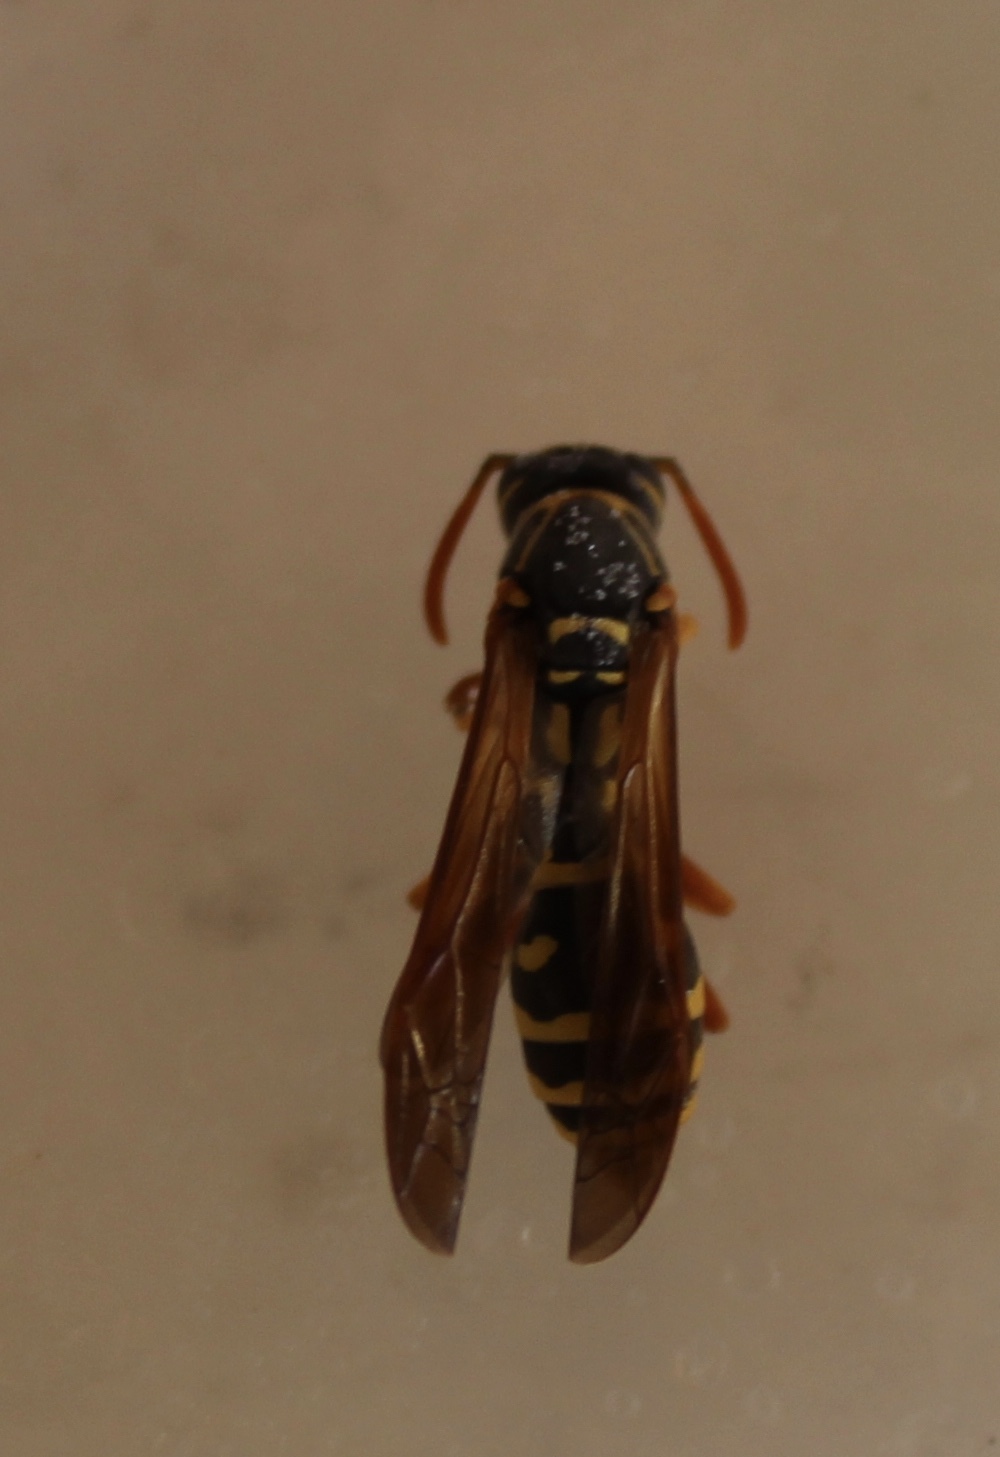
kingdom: Animalia
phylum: Arthropoda
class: Insecta
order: Hymenoptera
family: Eumenidae
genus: Polistes
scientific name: Polistes chinensis
